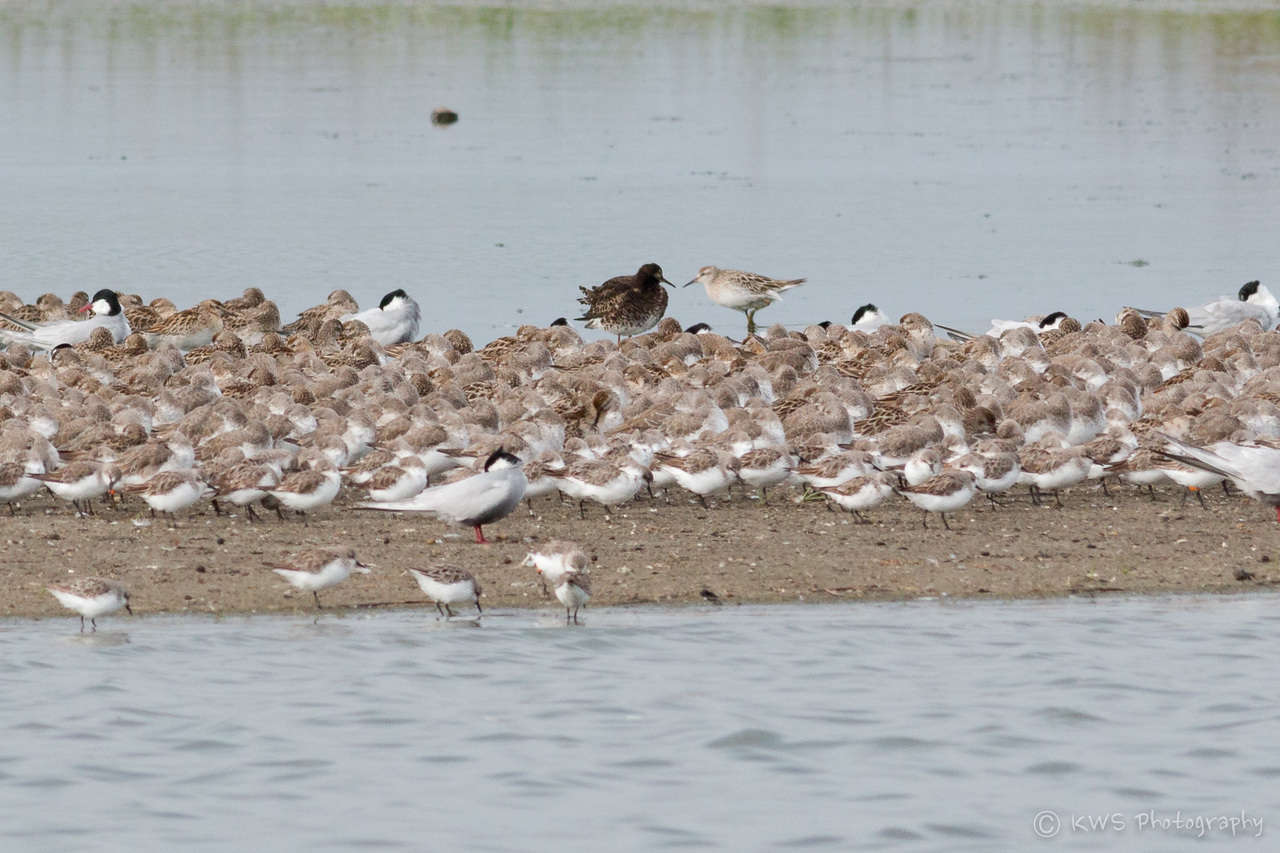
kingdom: Animalia
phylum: Chordata
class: Aves
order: Charadriiformes
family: Scolopacidae
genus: Calidris
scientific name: Calidris pugnax
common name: Ruff
